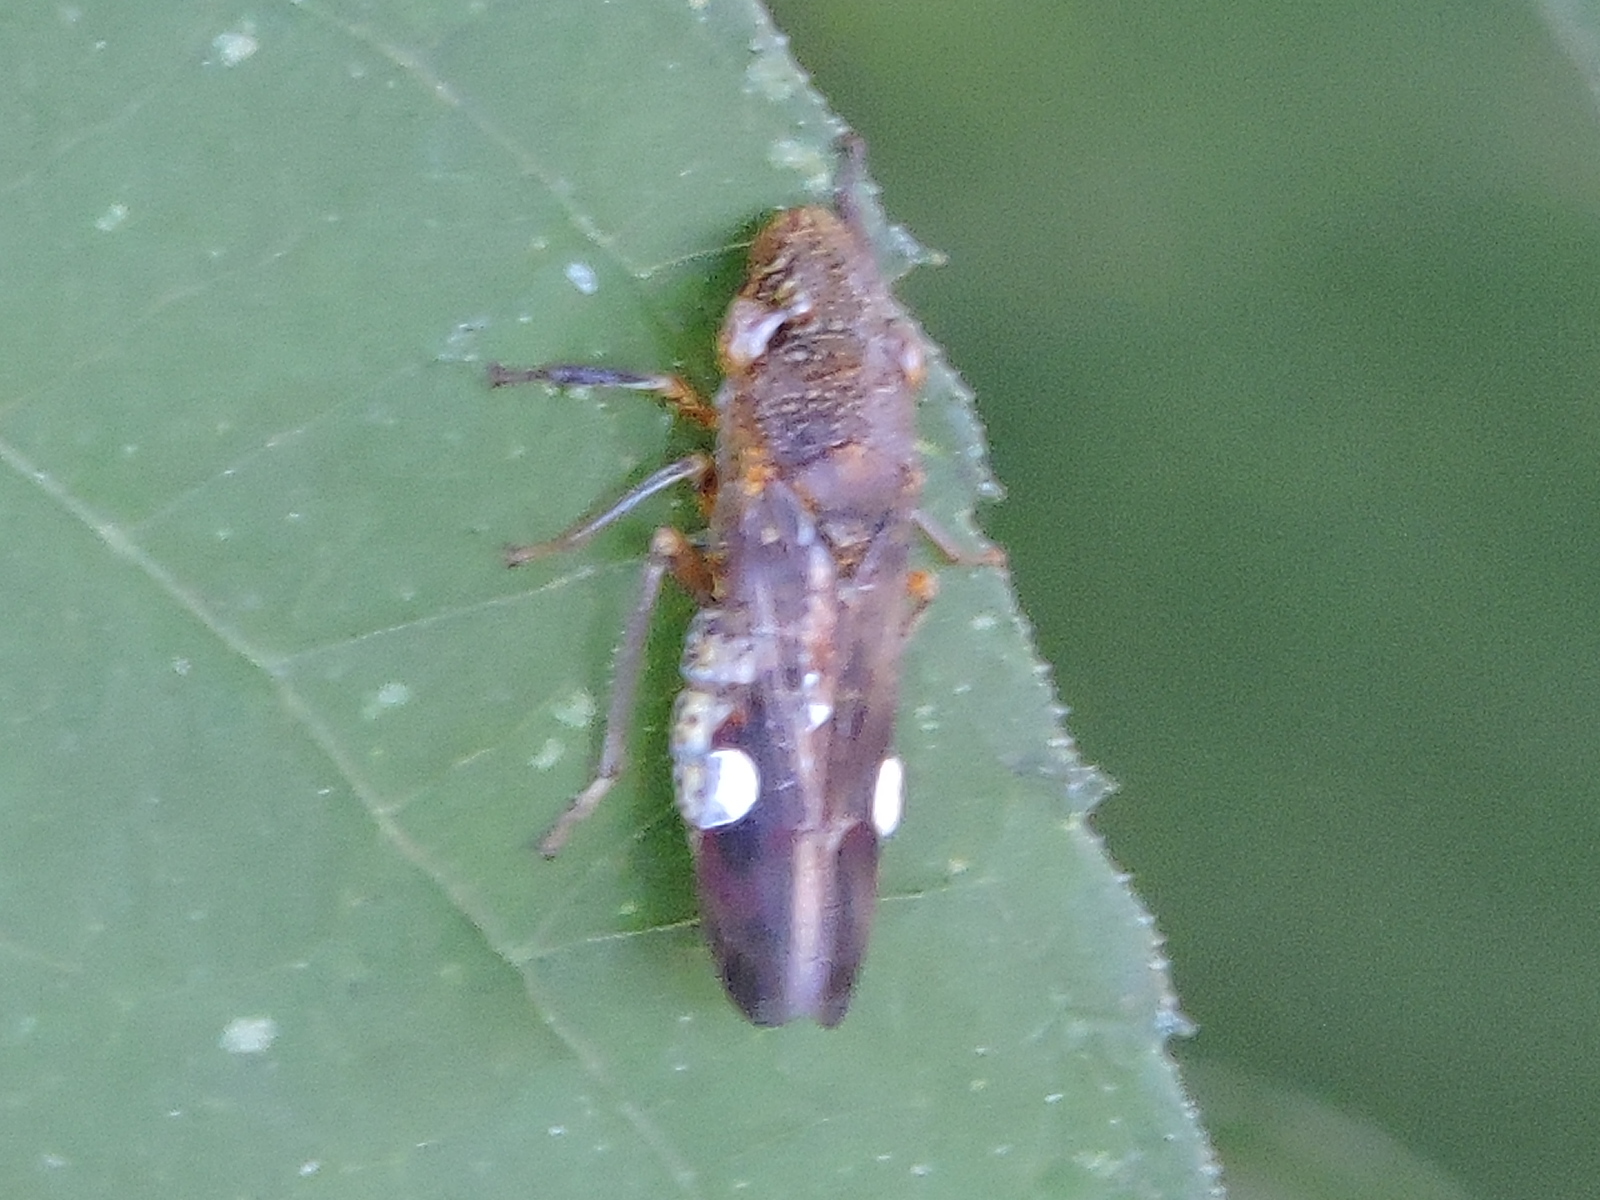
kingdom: Animalia
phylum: Arthropoda
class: Insecta
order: Hemiptera
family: Cicadellidae
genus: Homalodisca
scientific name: Homalodisca vitripennis
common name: Glassy-winged sharpshooter
